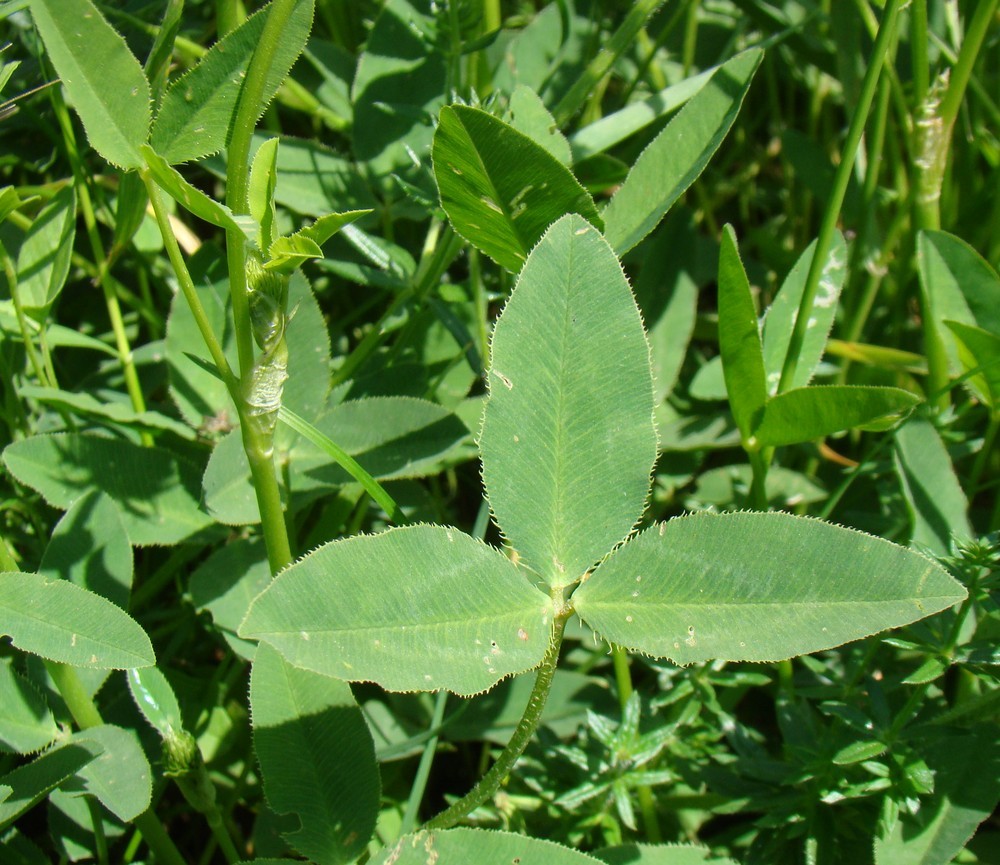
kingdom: Plantae
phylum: Tracheophyta
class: Magnoliopsida
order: Fabales
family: Fabaceae
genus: Trifolium
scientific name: Trifolium ambiguum
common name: Kura clover
